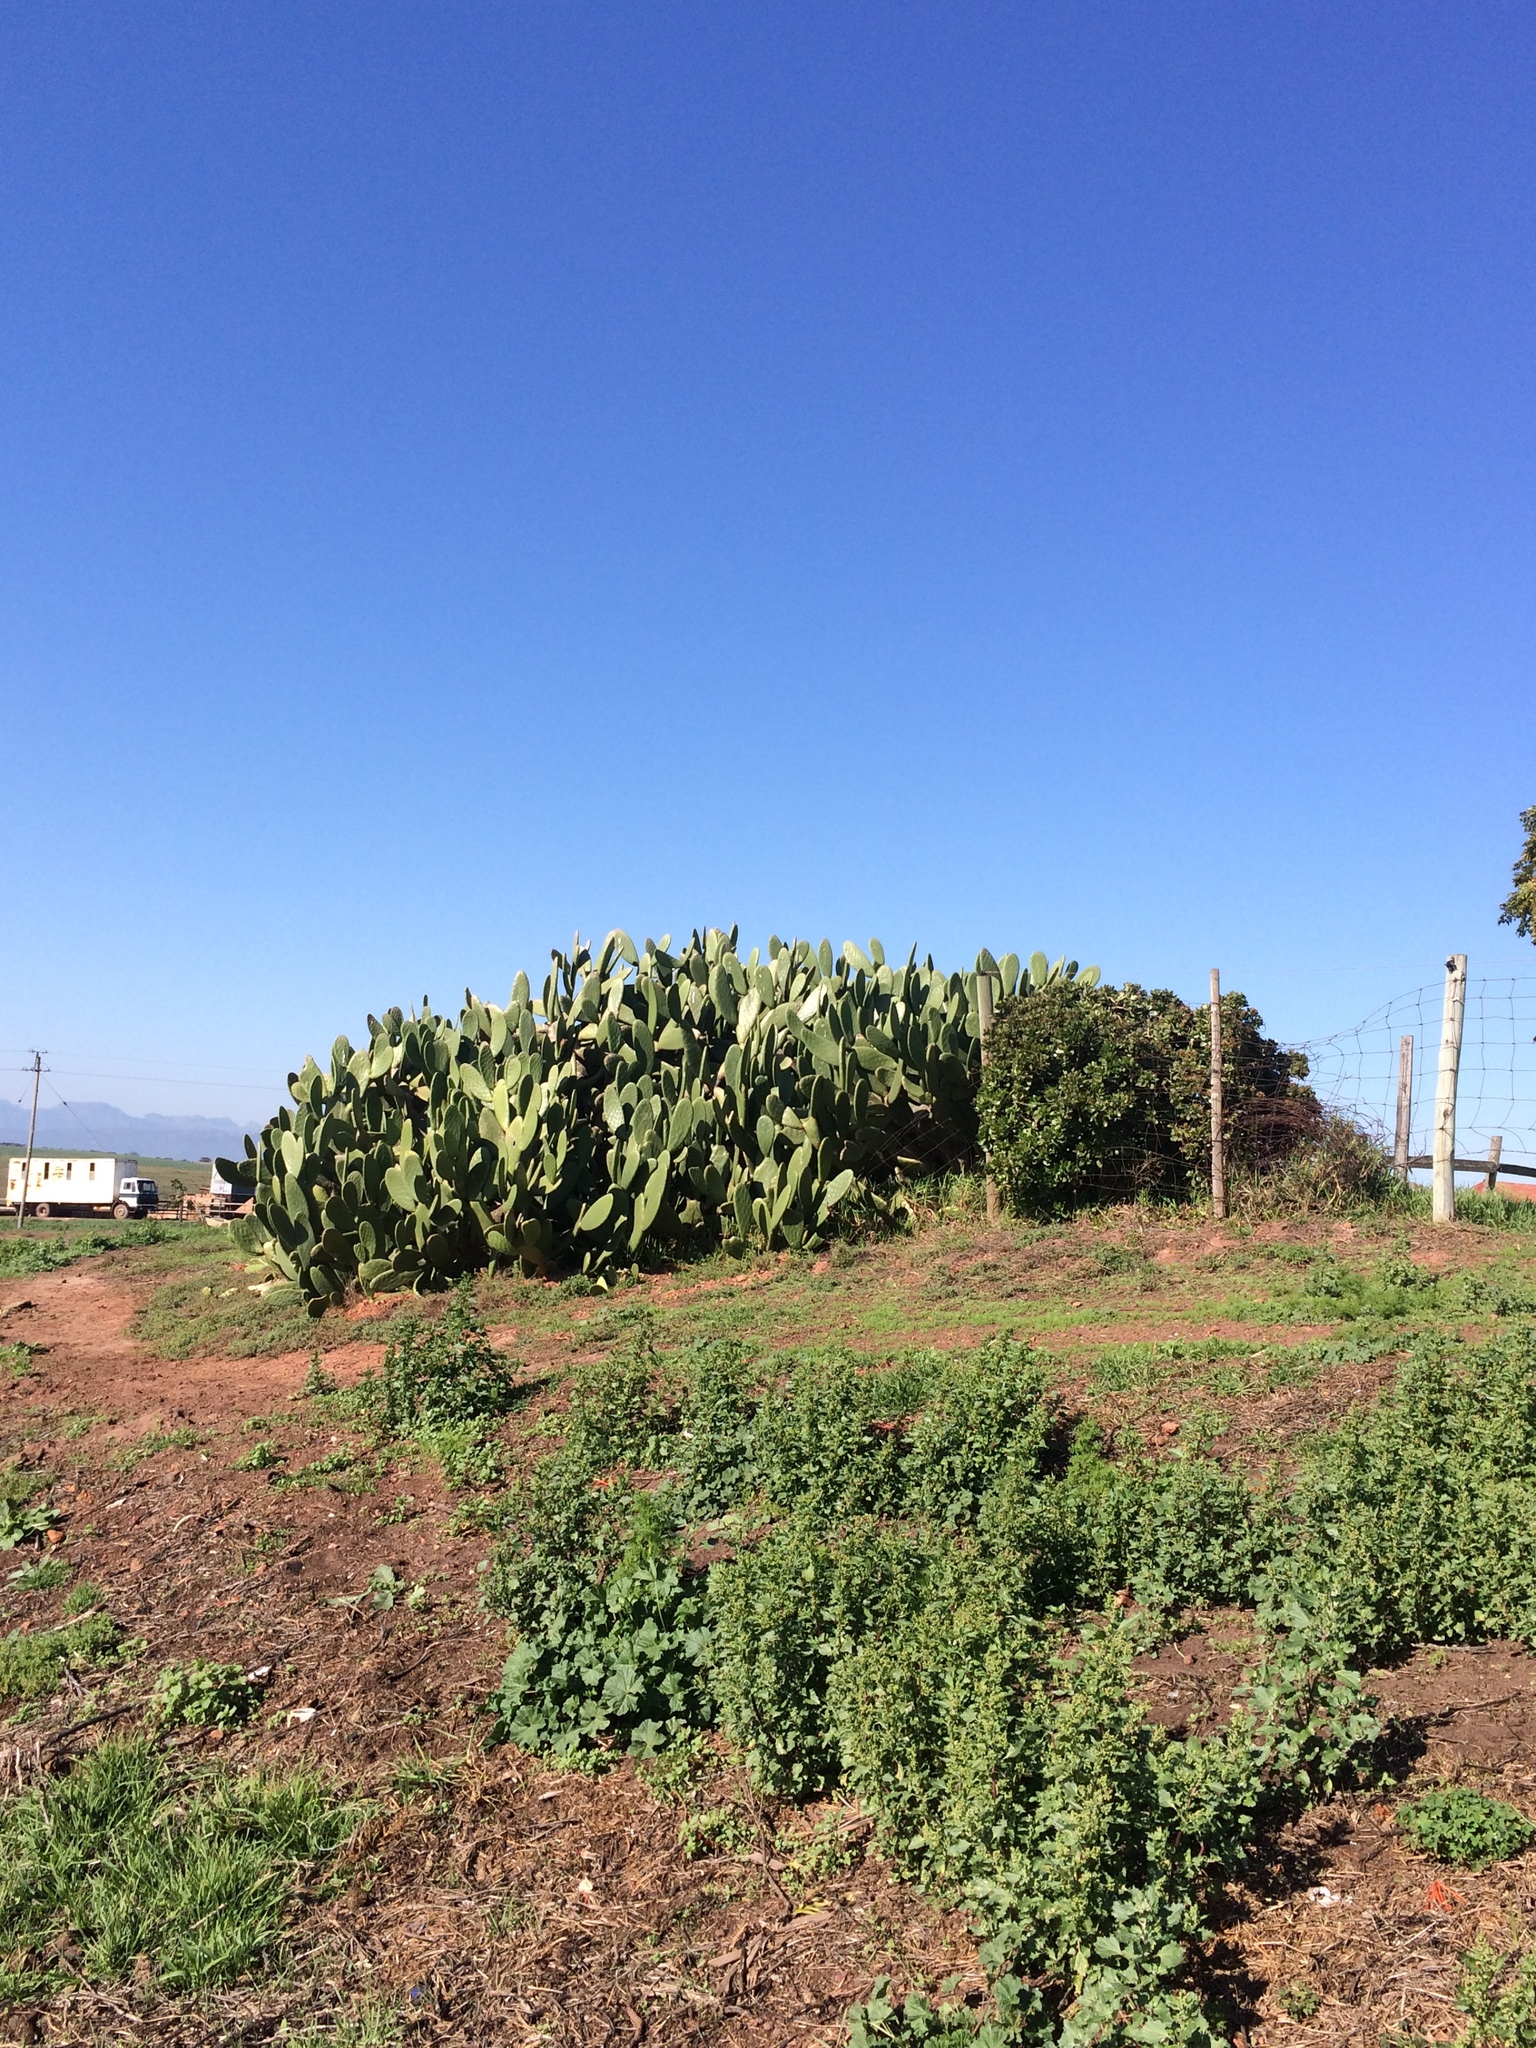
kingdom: Plantae
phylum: Tracheophyta
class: Magnoliopsida
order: Caryophyllales
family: Cactaceae
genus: Opuntia
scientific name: Opuntia ficus-indica
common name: Barbary fig
